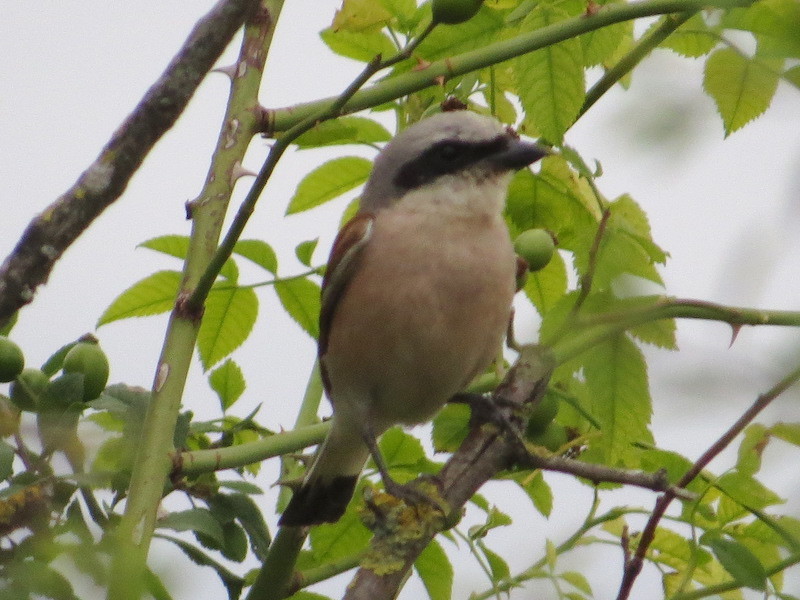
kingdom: Animalia
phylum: Chordata
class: Aves
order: Passeriformes
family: Laniidae
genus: Lanius
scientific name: Lanius collurio
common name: Red-backed shrike
